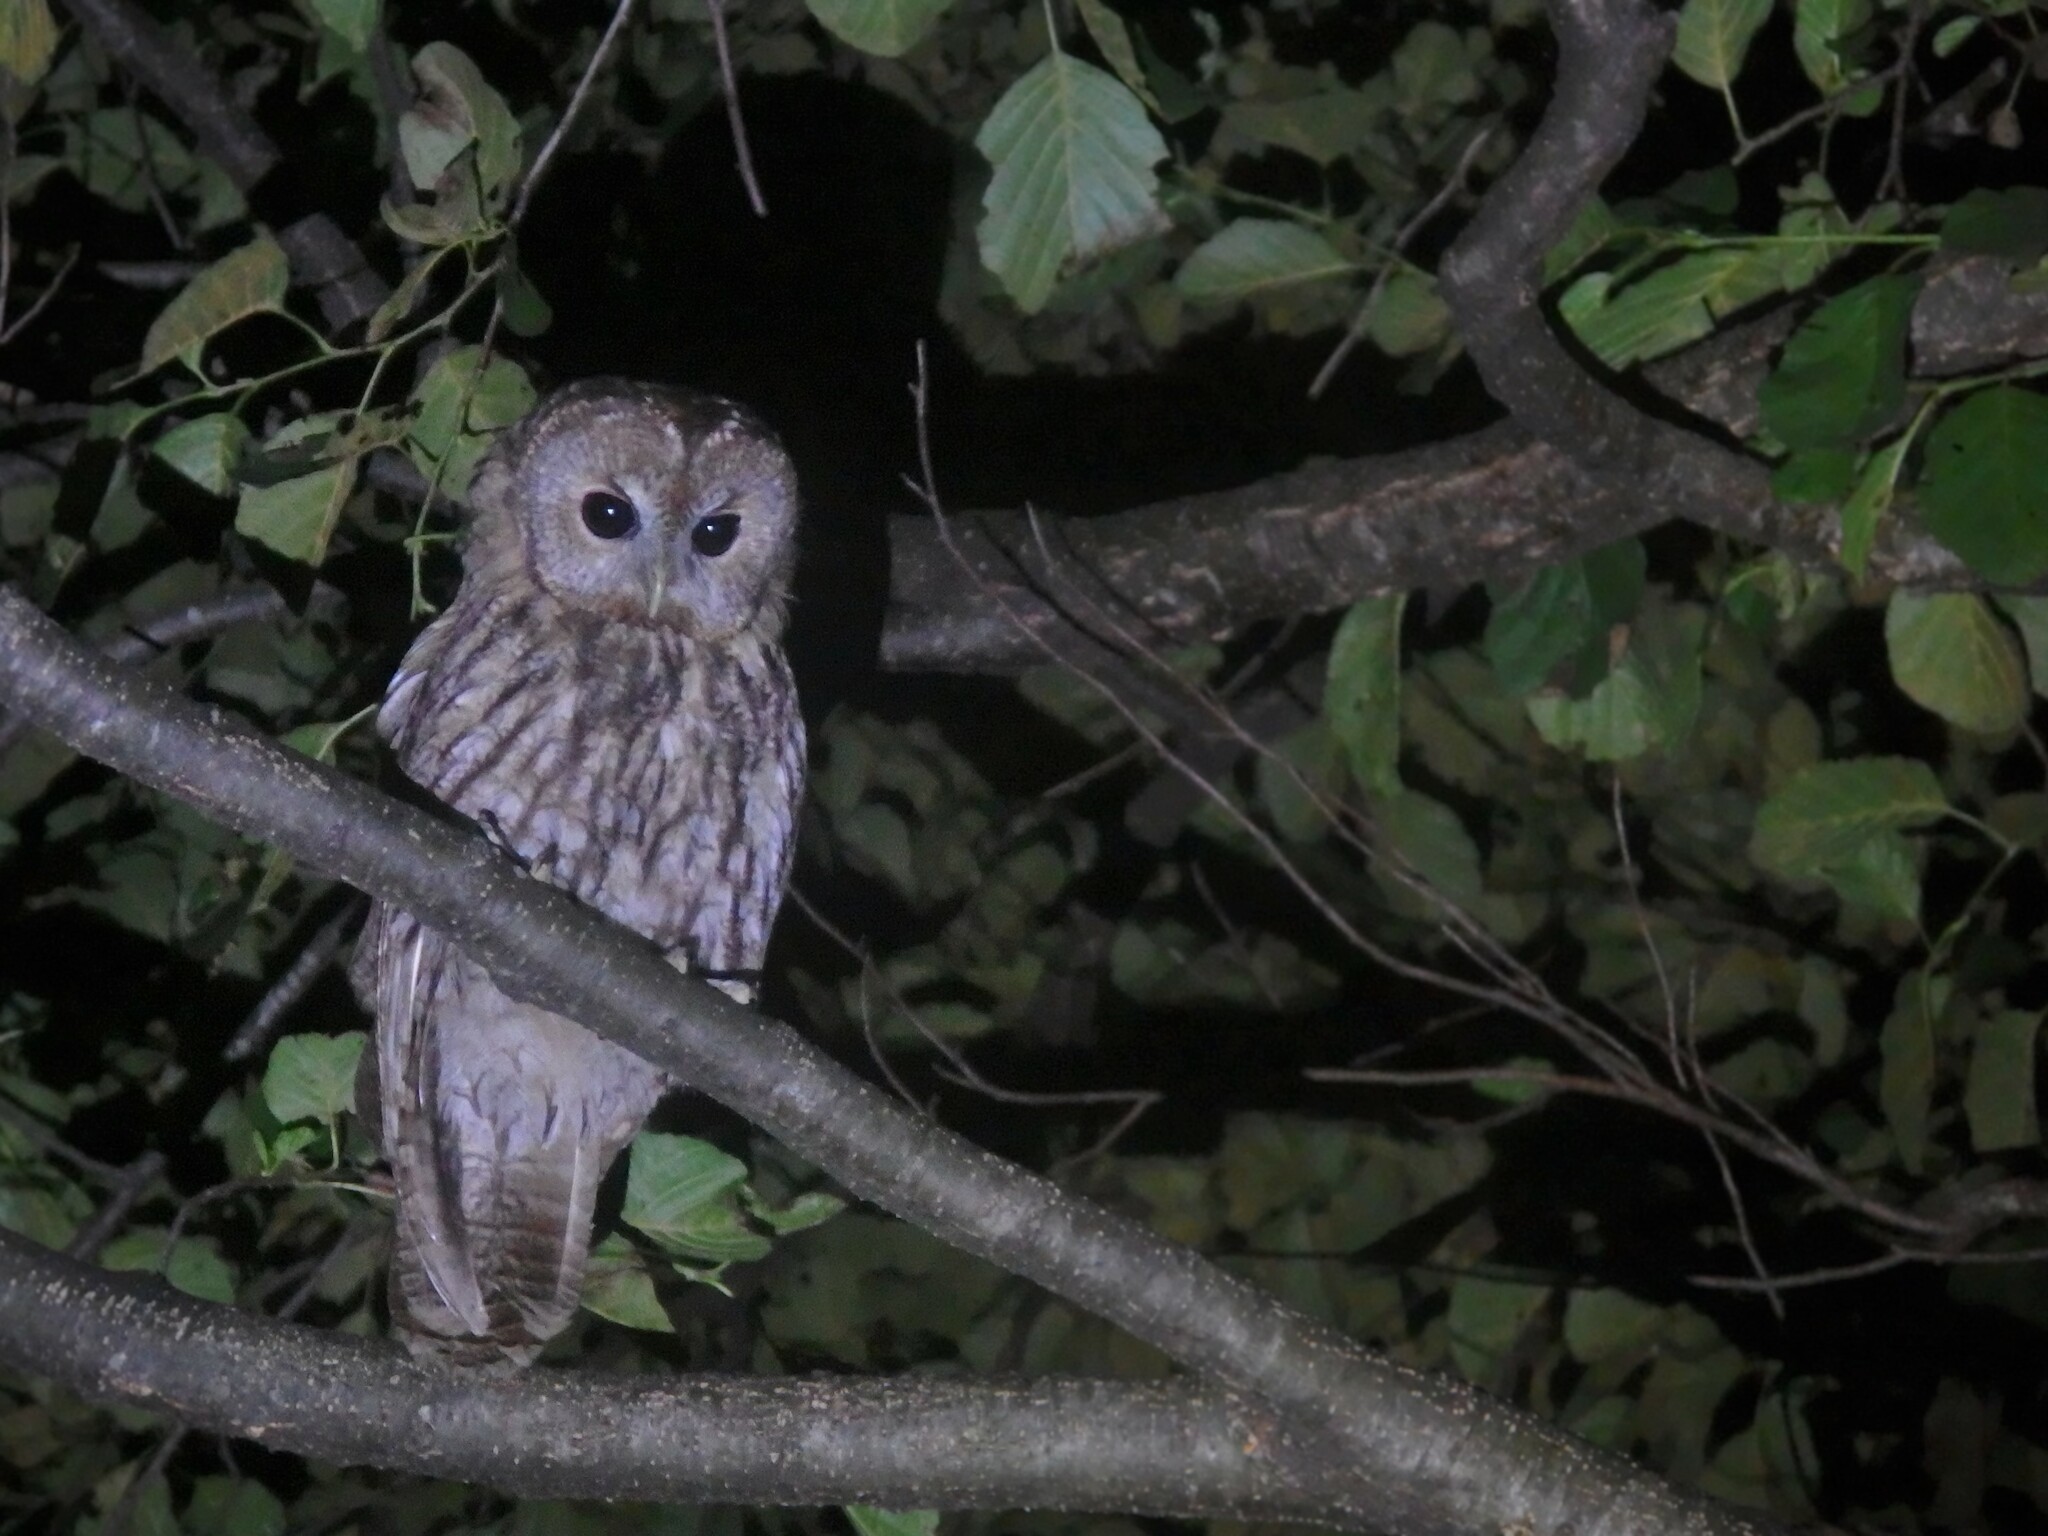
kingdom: Animalia
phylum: Chordata
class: Aves
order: Strigiformes
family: Strigidae
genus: Strix
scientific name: Strix aluco
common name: Tawny owl
